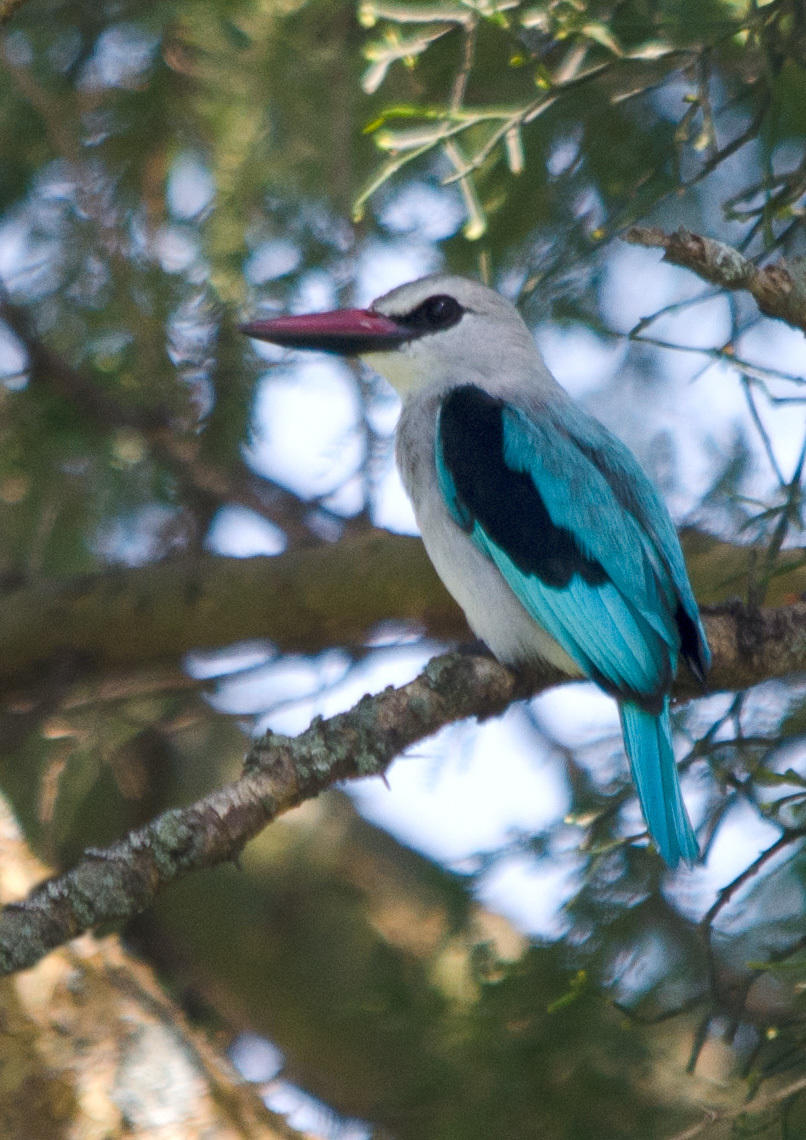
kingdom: Animalia
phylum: Chordata
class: Aves
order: Coraciiformes
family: Alcedinidae
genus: Halcyon
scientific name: Halcyon senegalensis
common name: Woodland kingfisher
